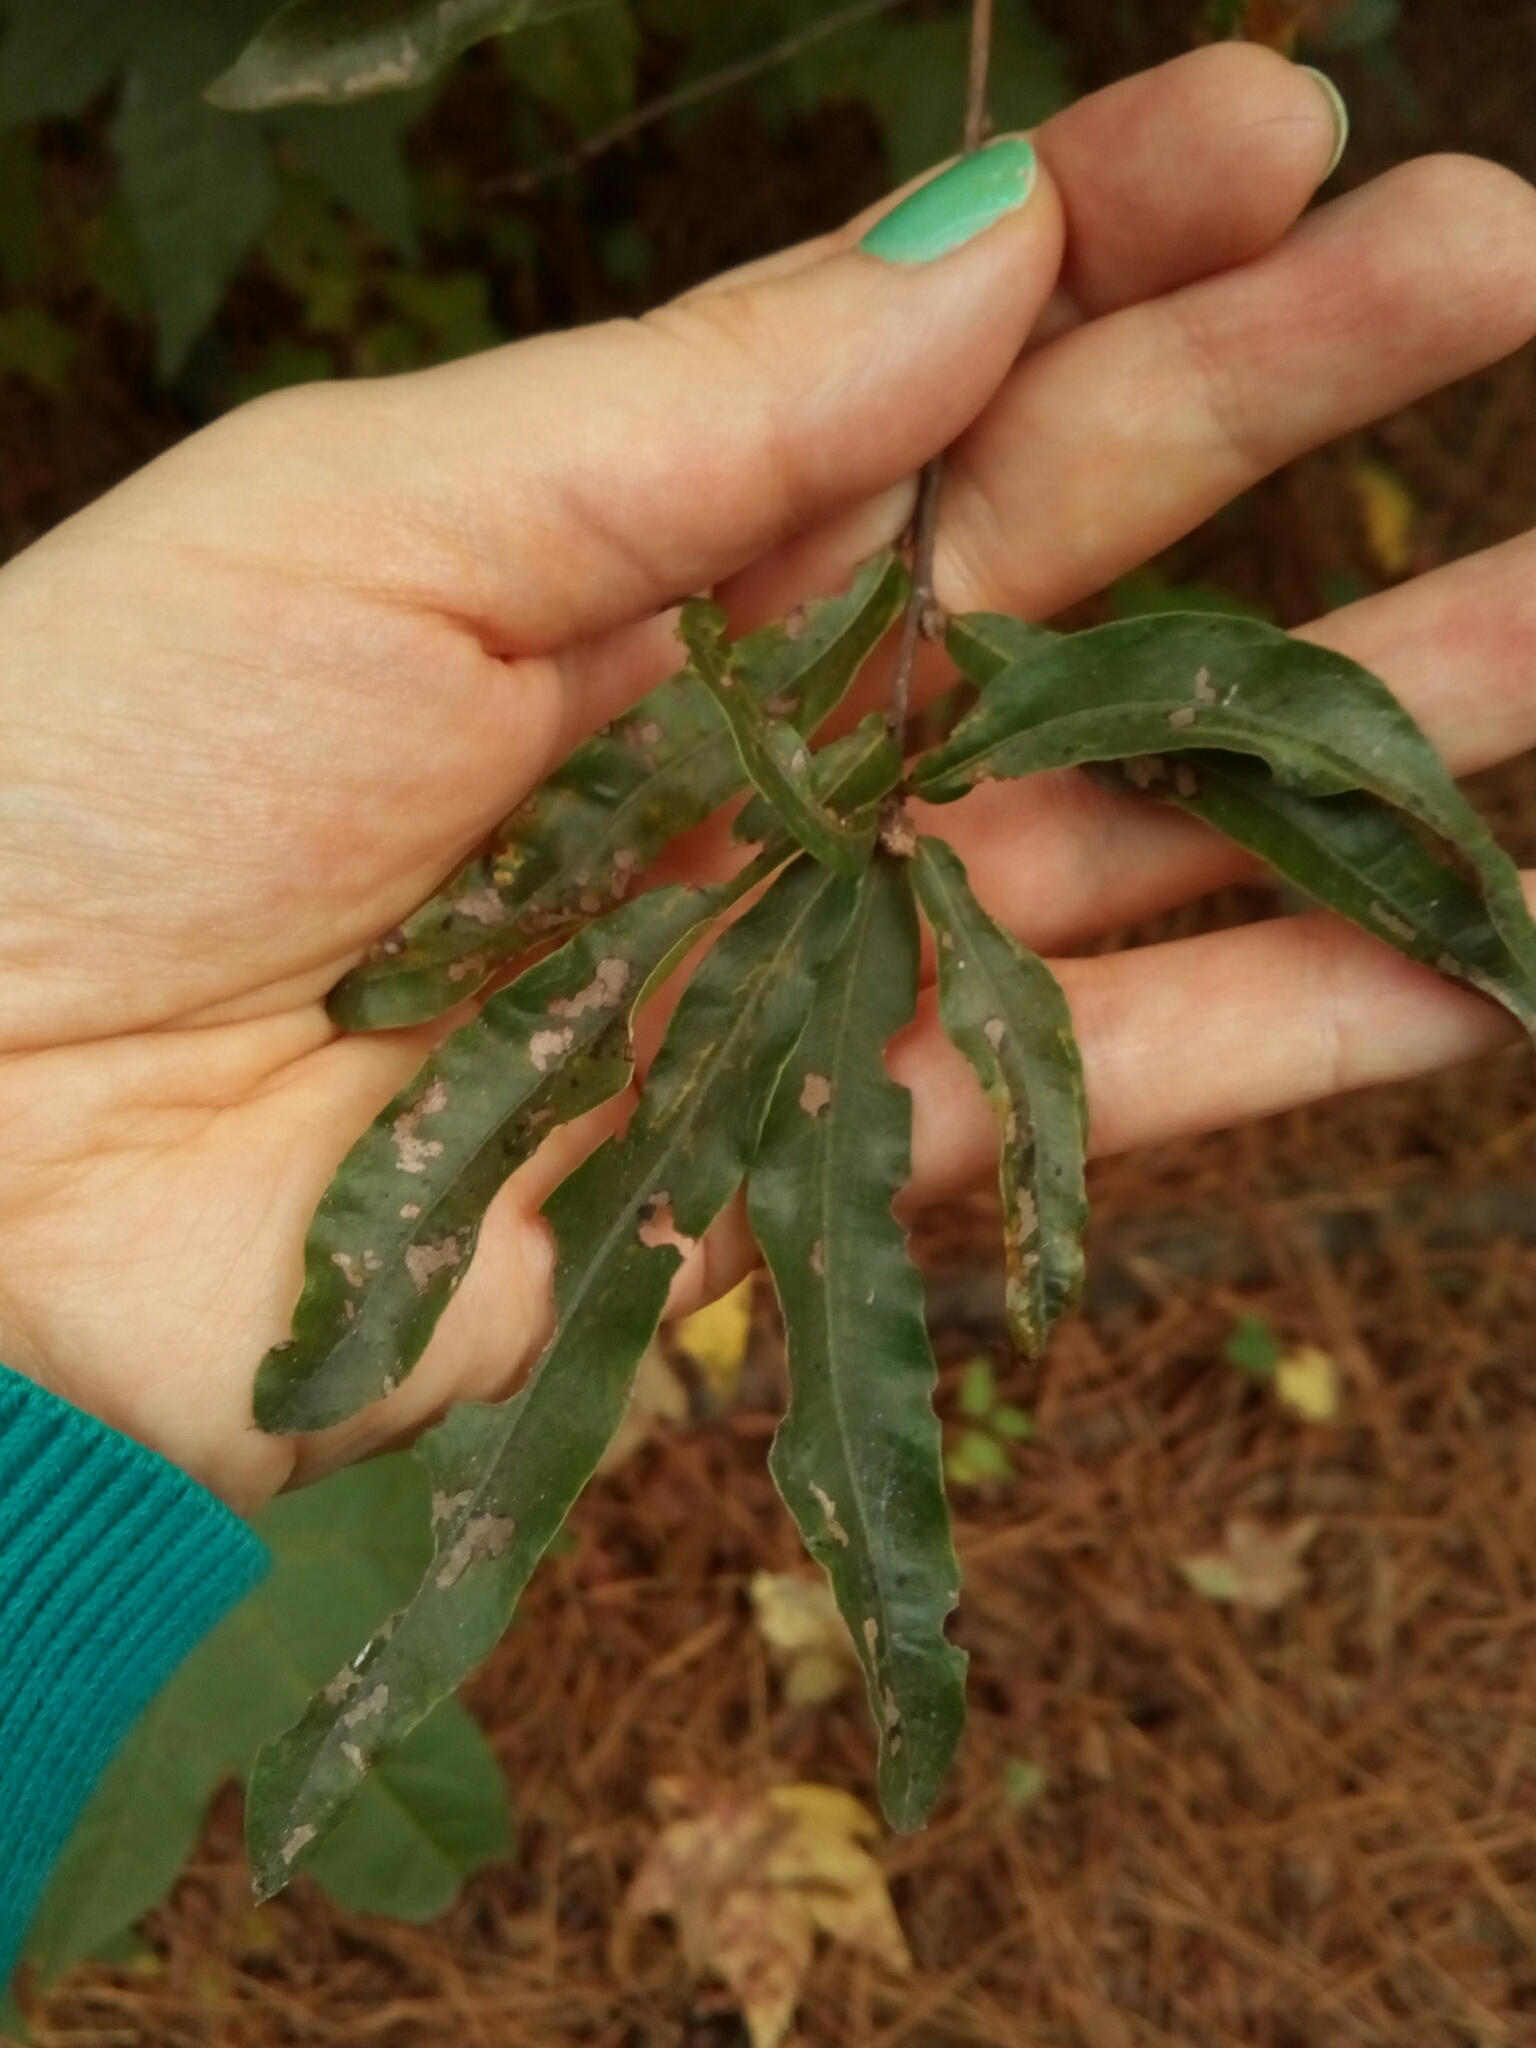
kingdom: Plantae
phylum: Tracheophyta
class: Magnoliopsida
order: Fagales
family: Fagaceae
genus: Quercus
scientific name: Quercus phellos
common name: Willow oak
